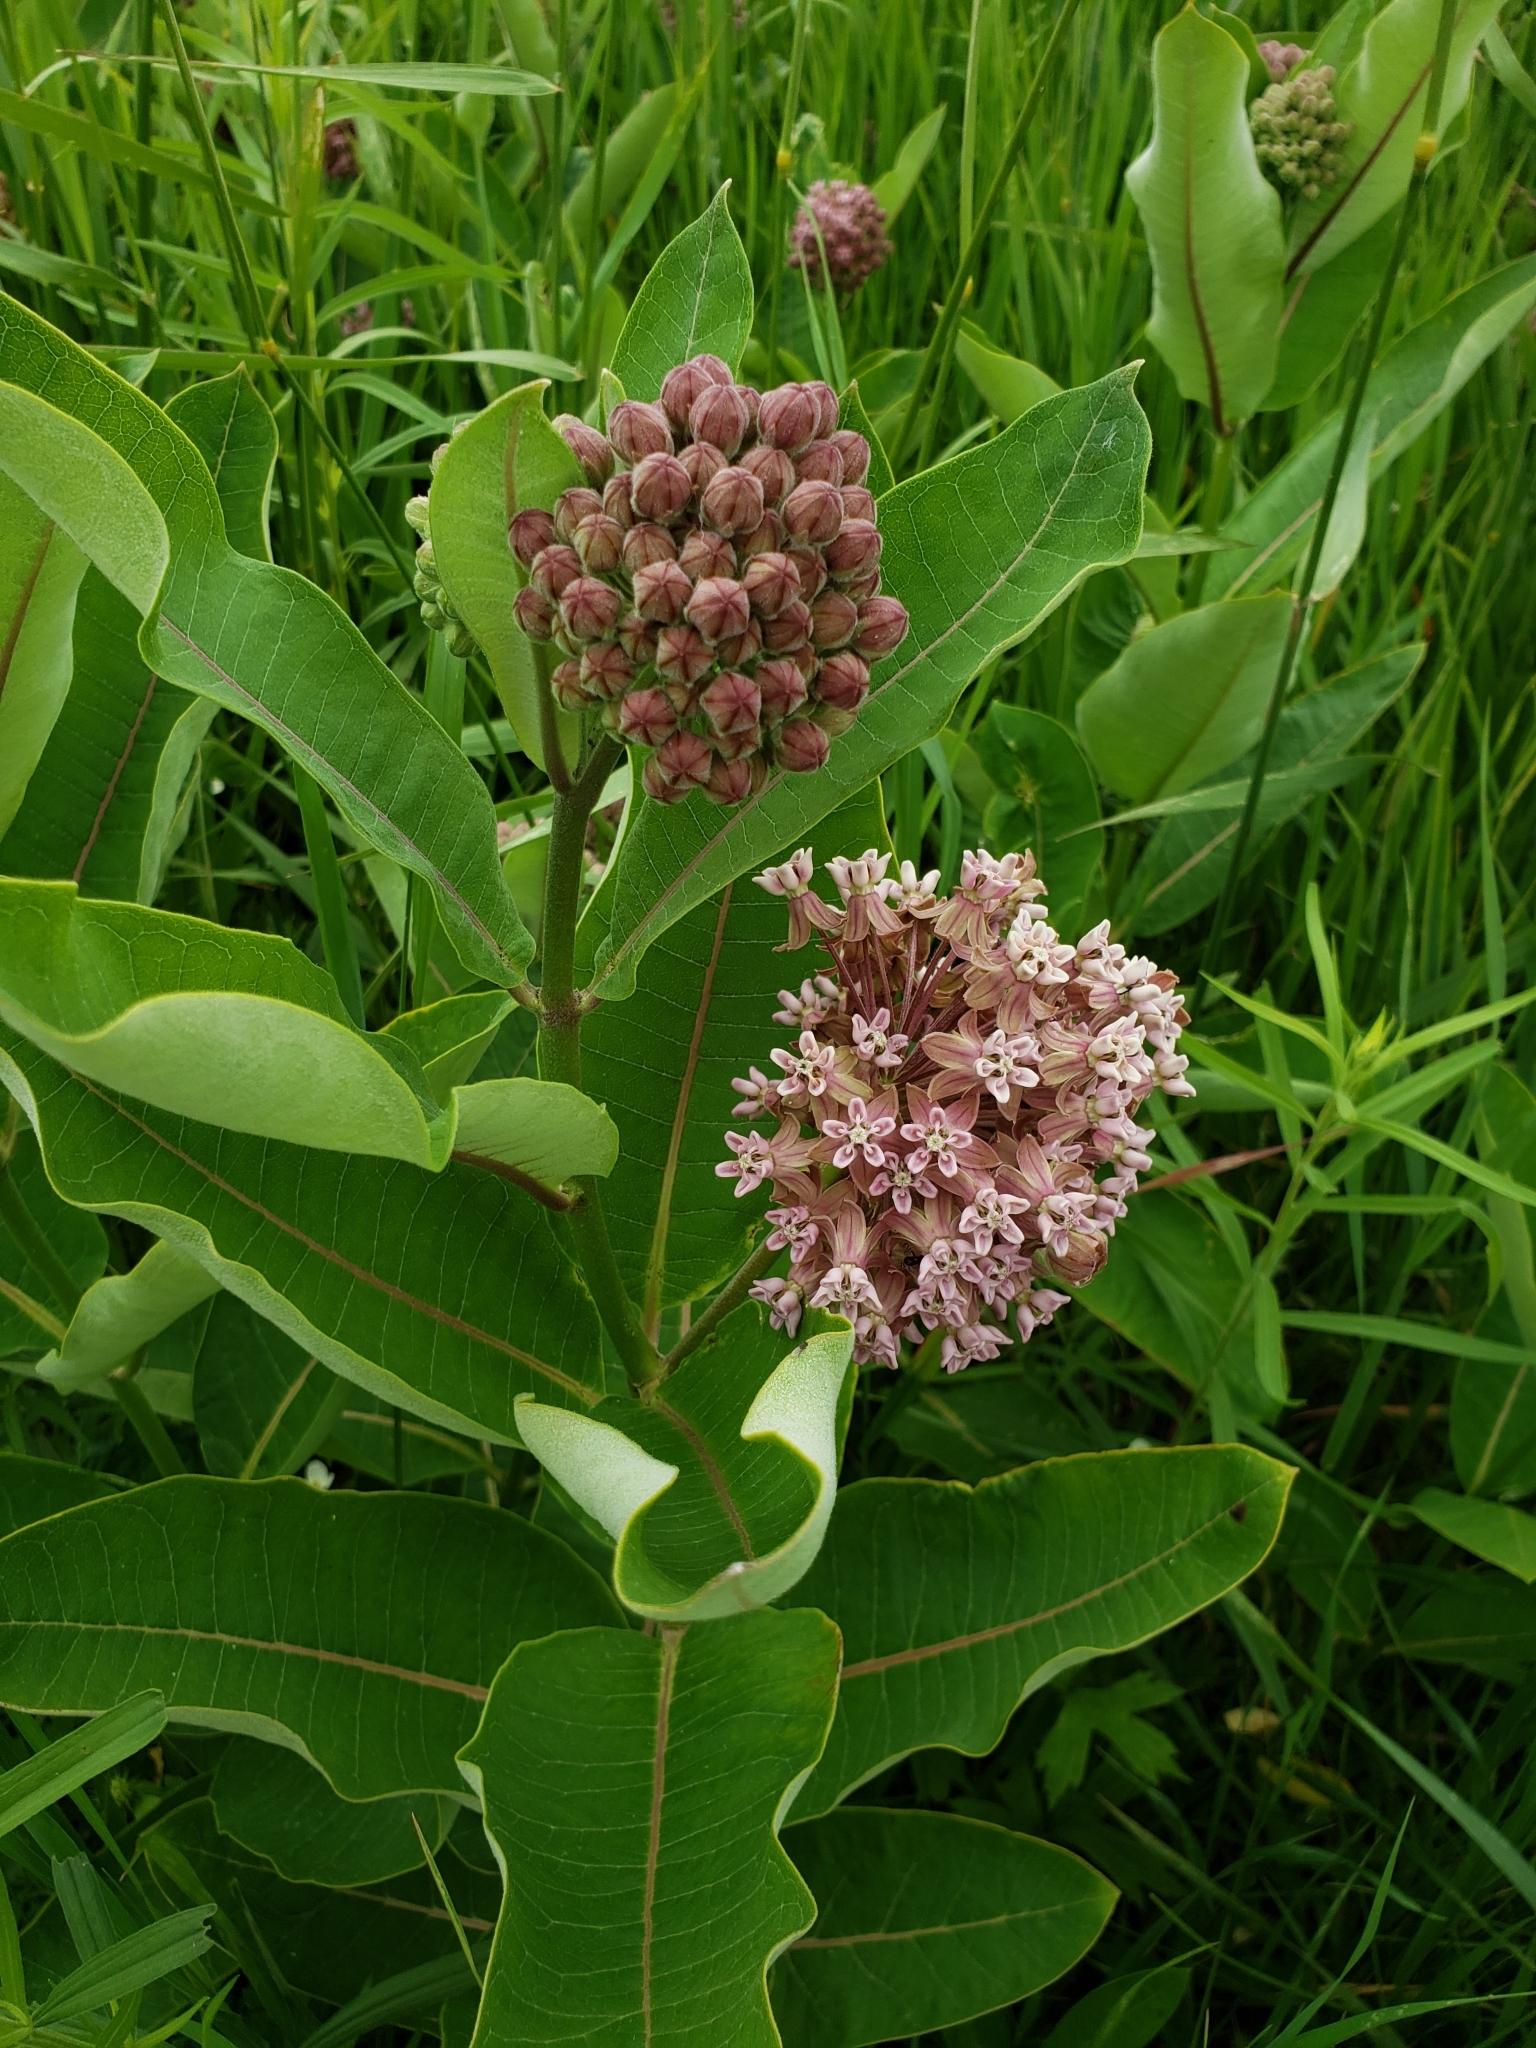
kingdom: Plantae
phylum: Tracheophyta
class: Magnoliopsida
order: Gentianales
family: Apocynaceae
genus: Asclepias
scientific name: Asclepias syriaca
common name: Common milkweed
